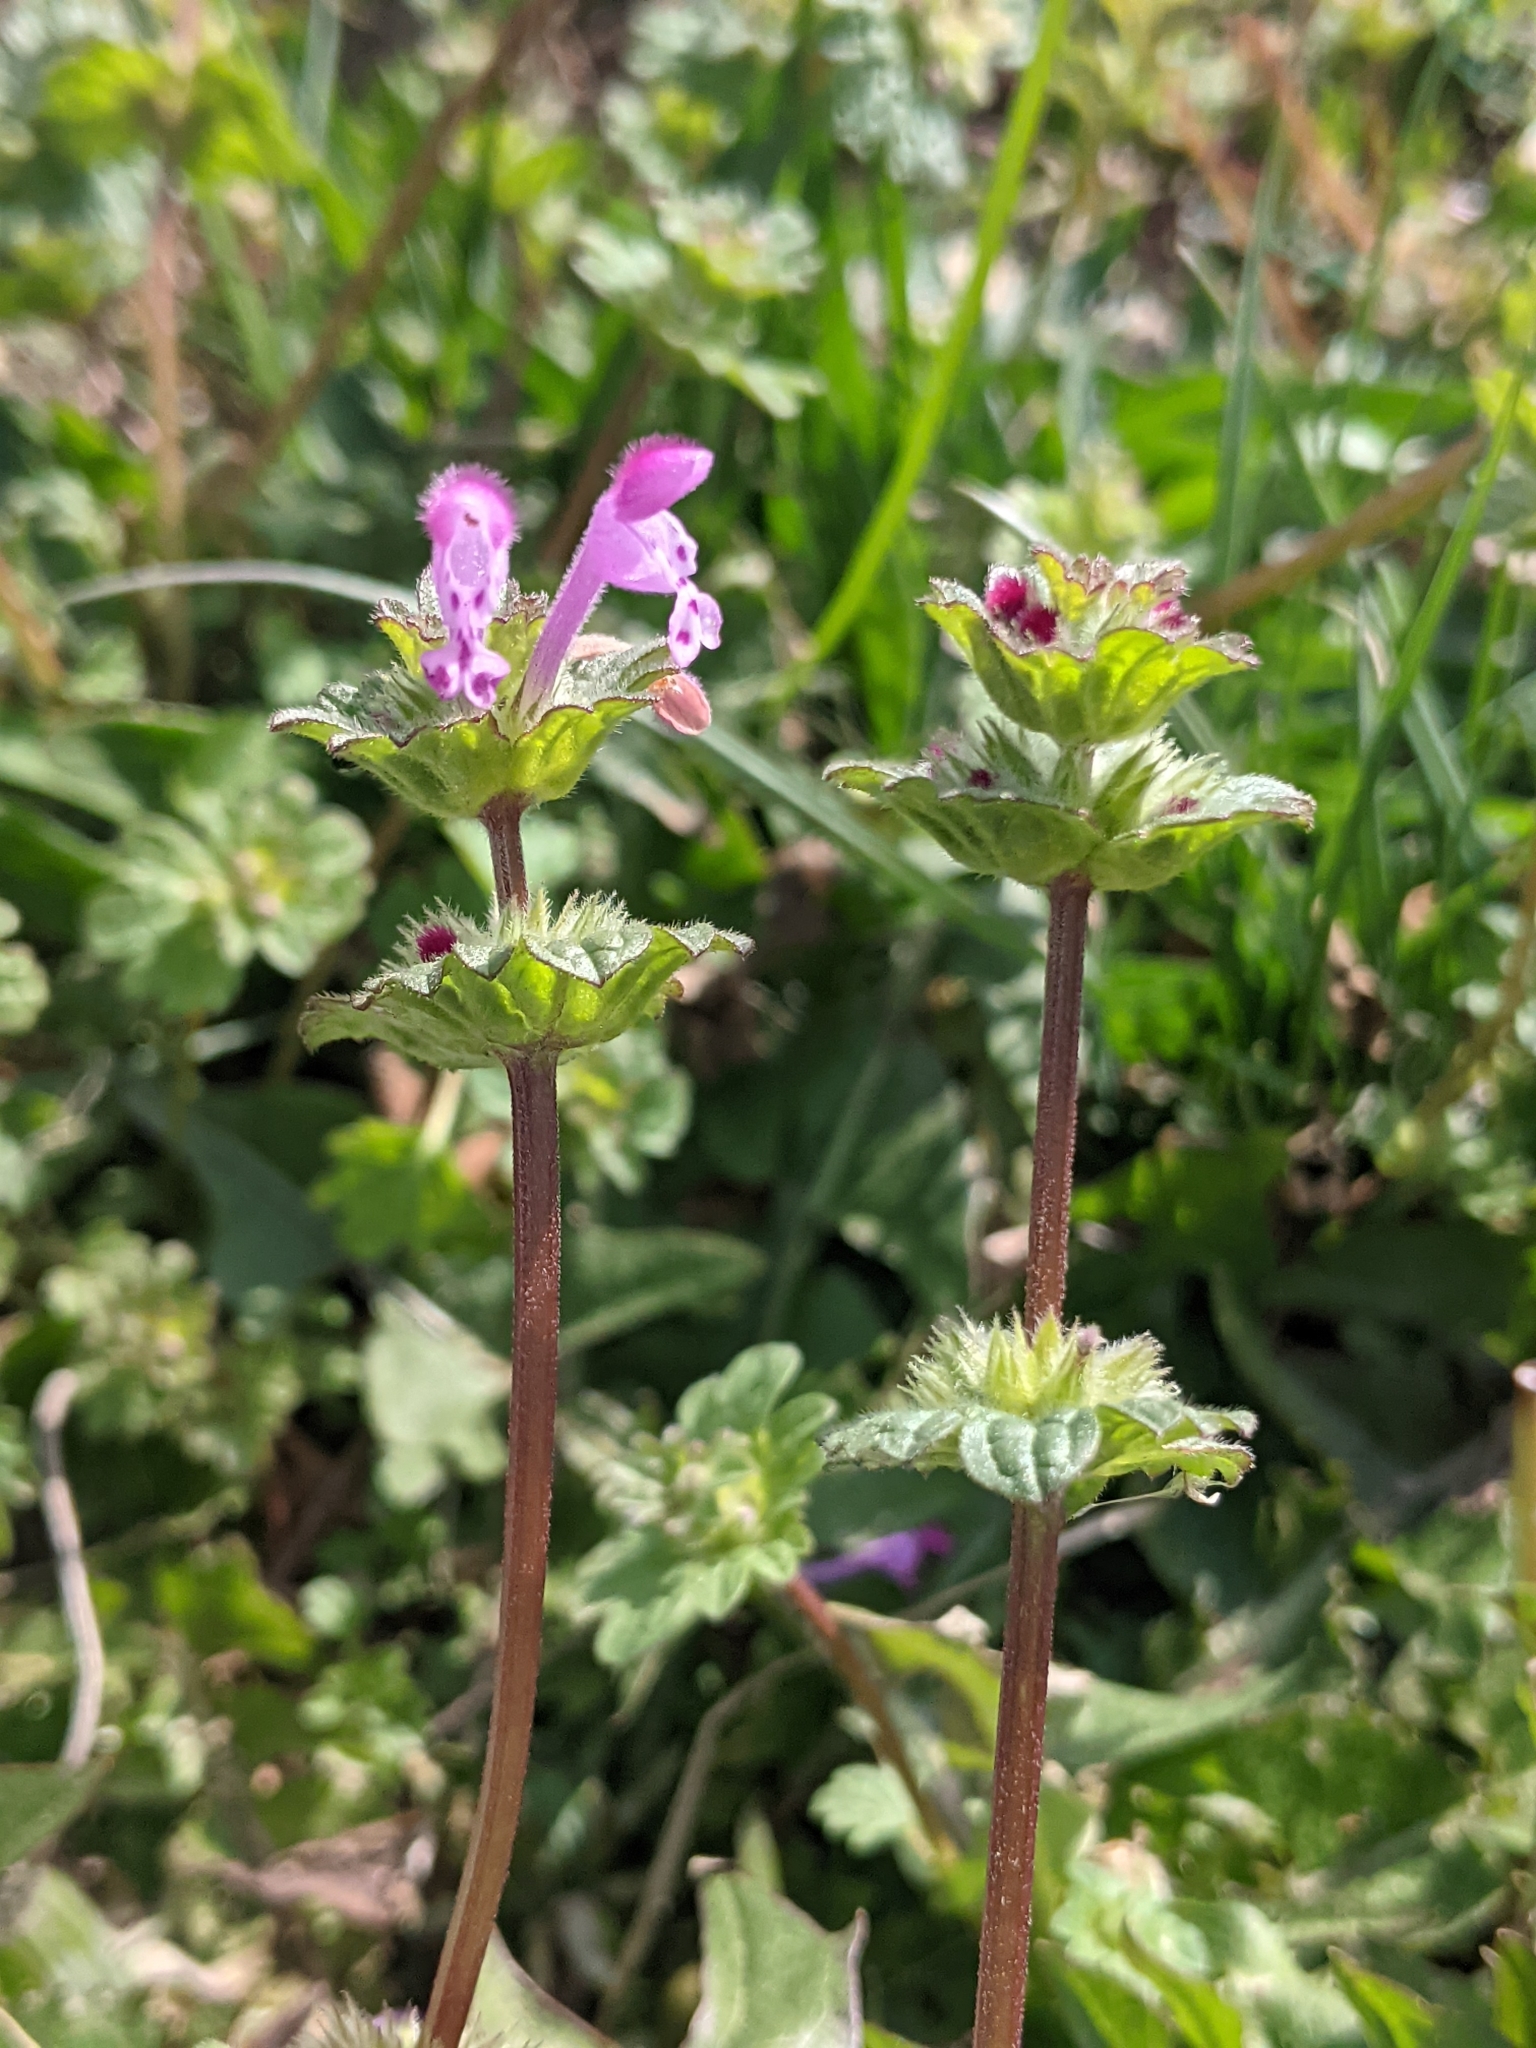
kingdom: Plantae
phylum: Tracheophyta
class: Magnoliopsida
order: Lamiales
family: Lamiaceae
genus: Lamium
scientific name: Lamium amplexicaule
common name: Henbit dead-nettle
